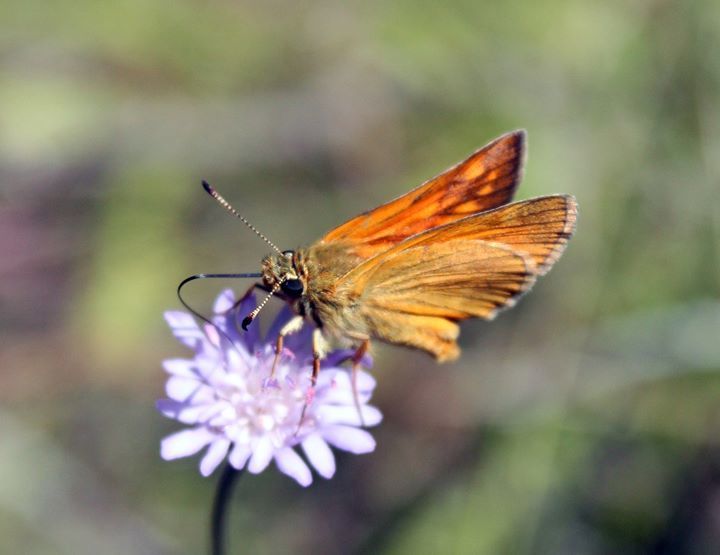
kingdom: Animalia
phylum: Arthropoda
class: Insecta
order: Lepidoptera
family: Hesperiidae
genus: Ochlodes
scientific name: Ochlodes venata
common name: Large skipper
